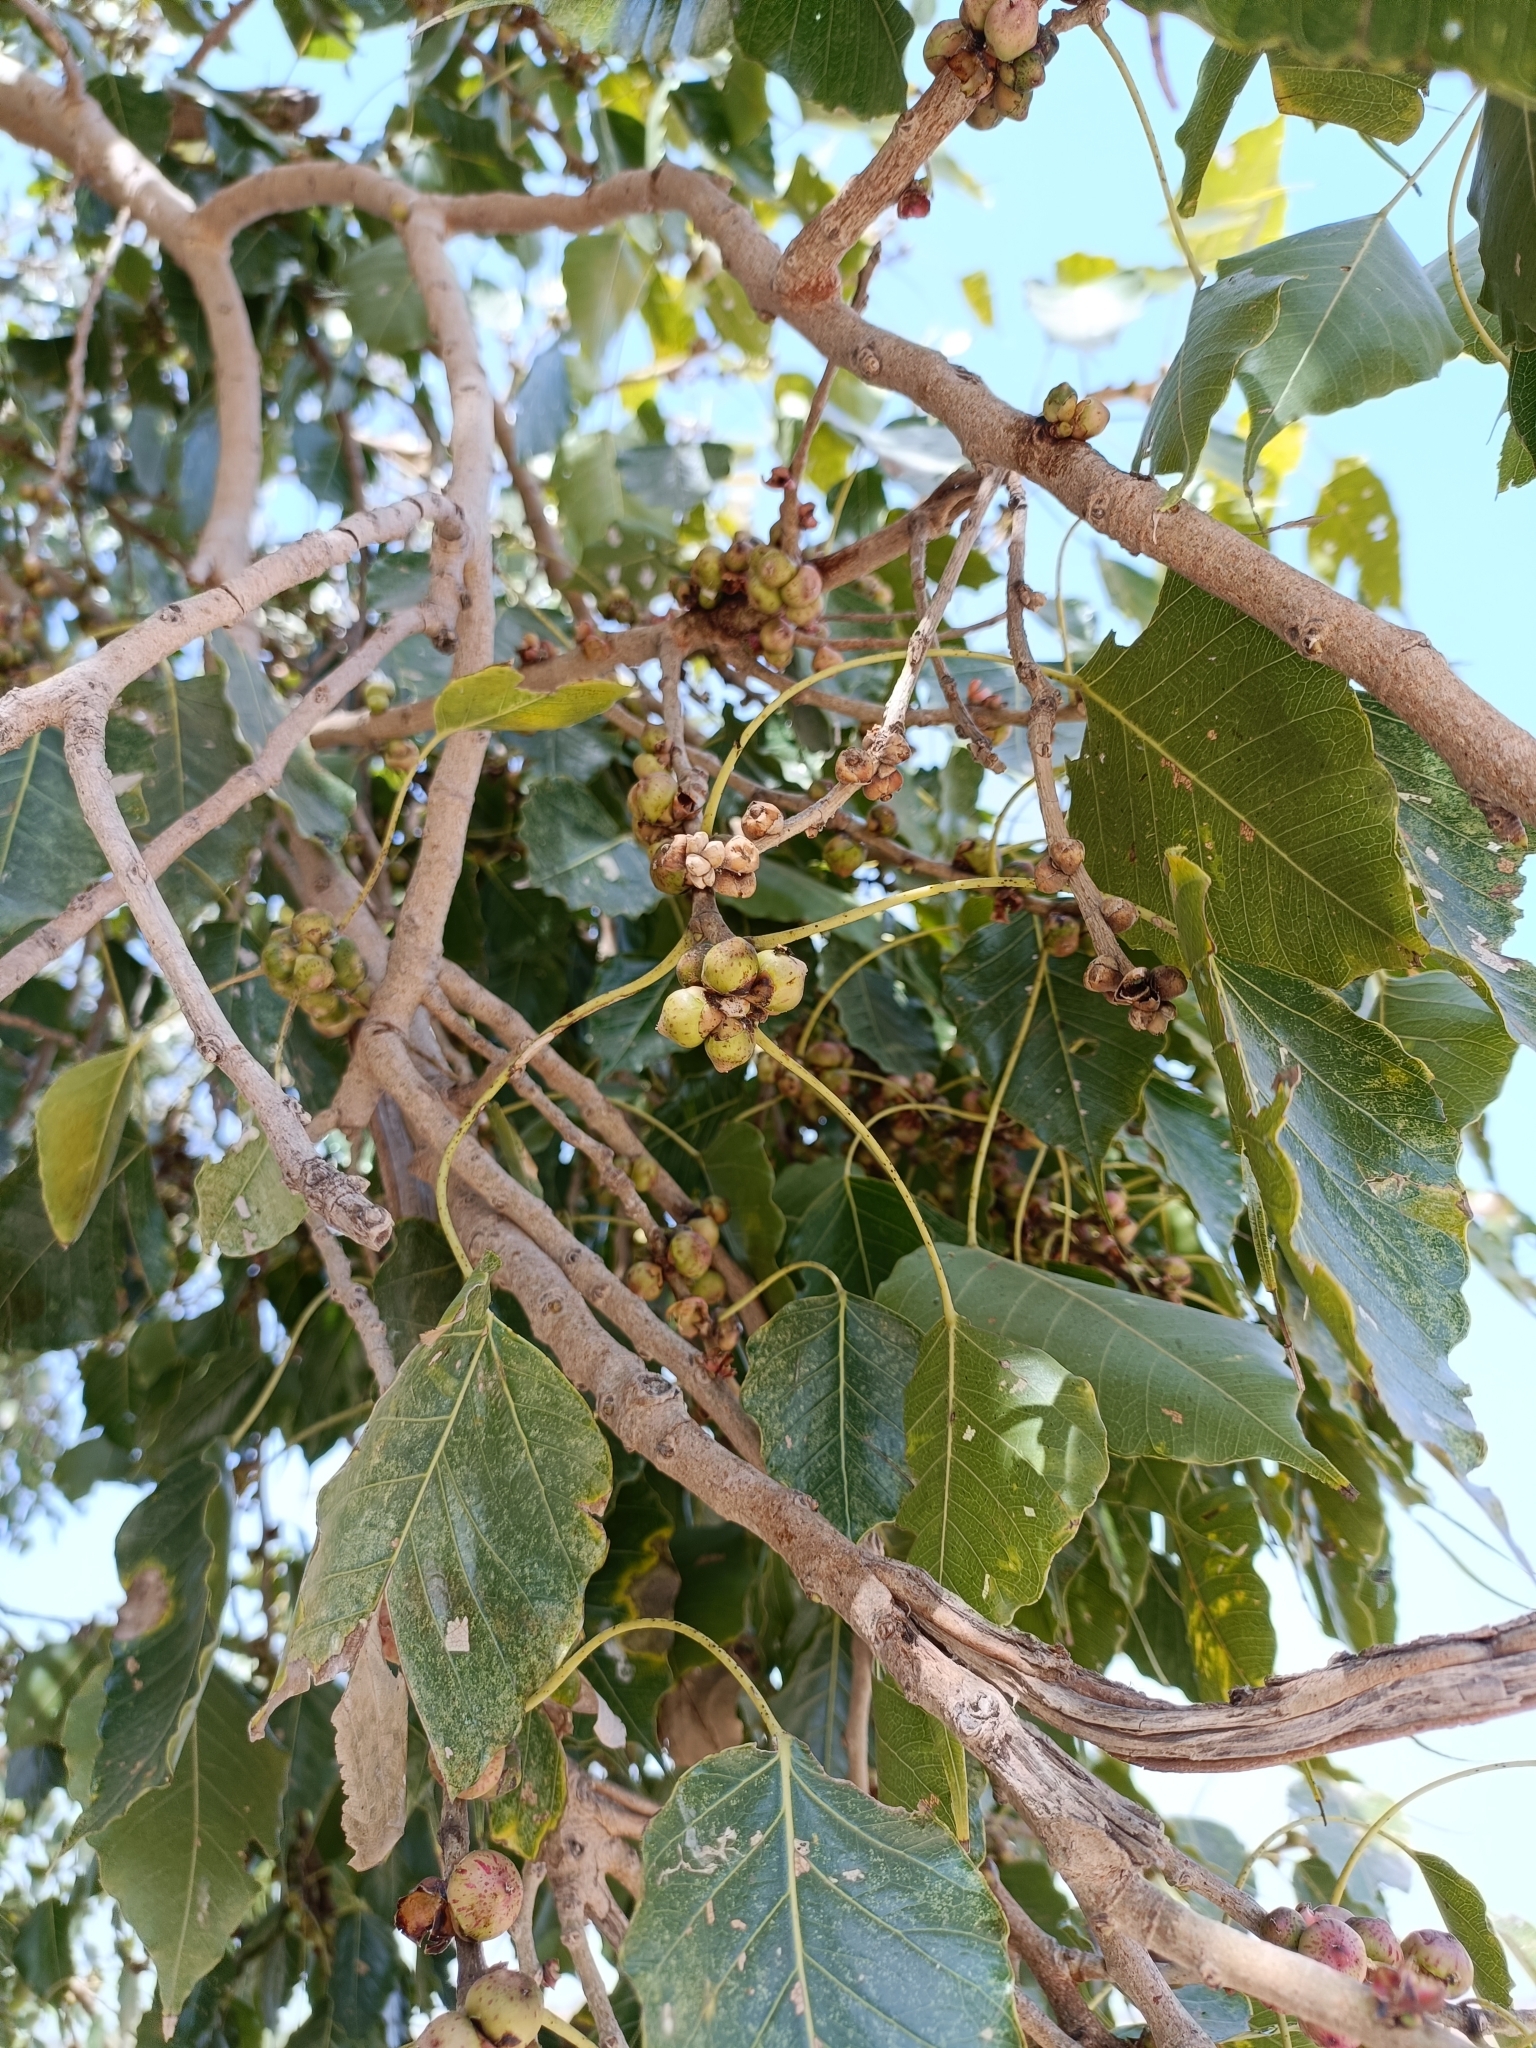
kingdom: Plantae
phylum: Tracheophyta
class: Magnoliopsida
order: Rosales
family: Moraceae
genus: Ficus
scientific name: Ficus religiosa
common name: Bodhi tree
